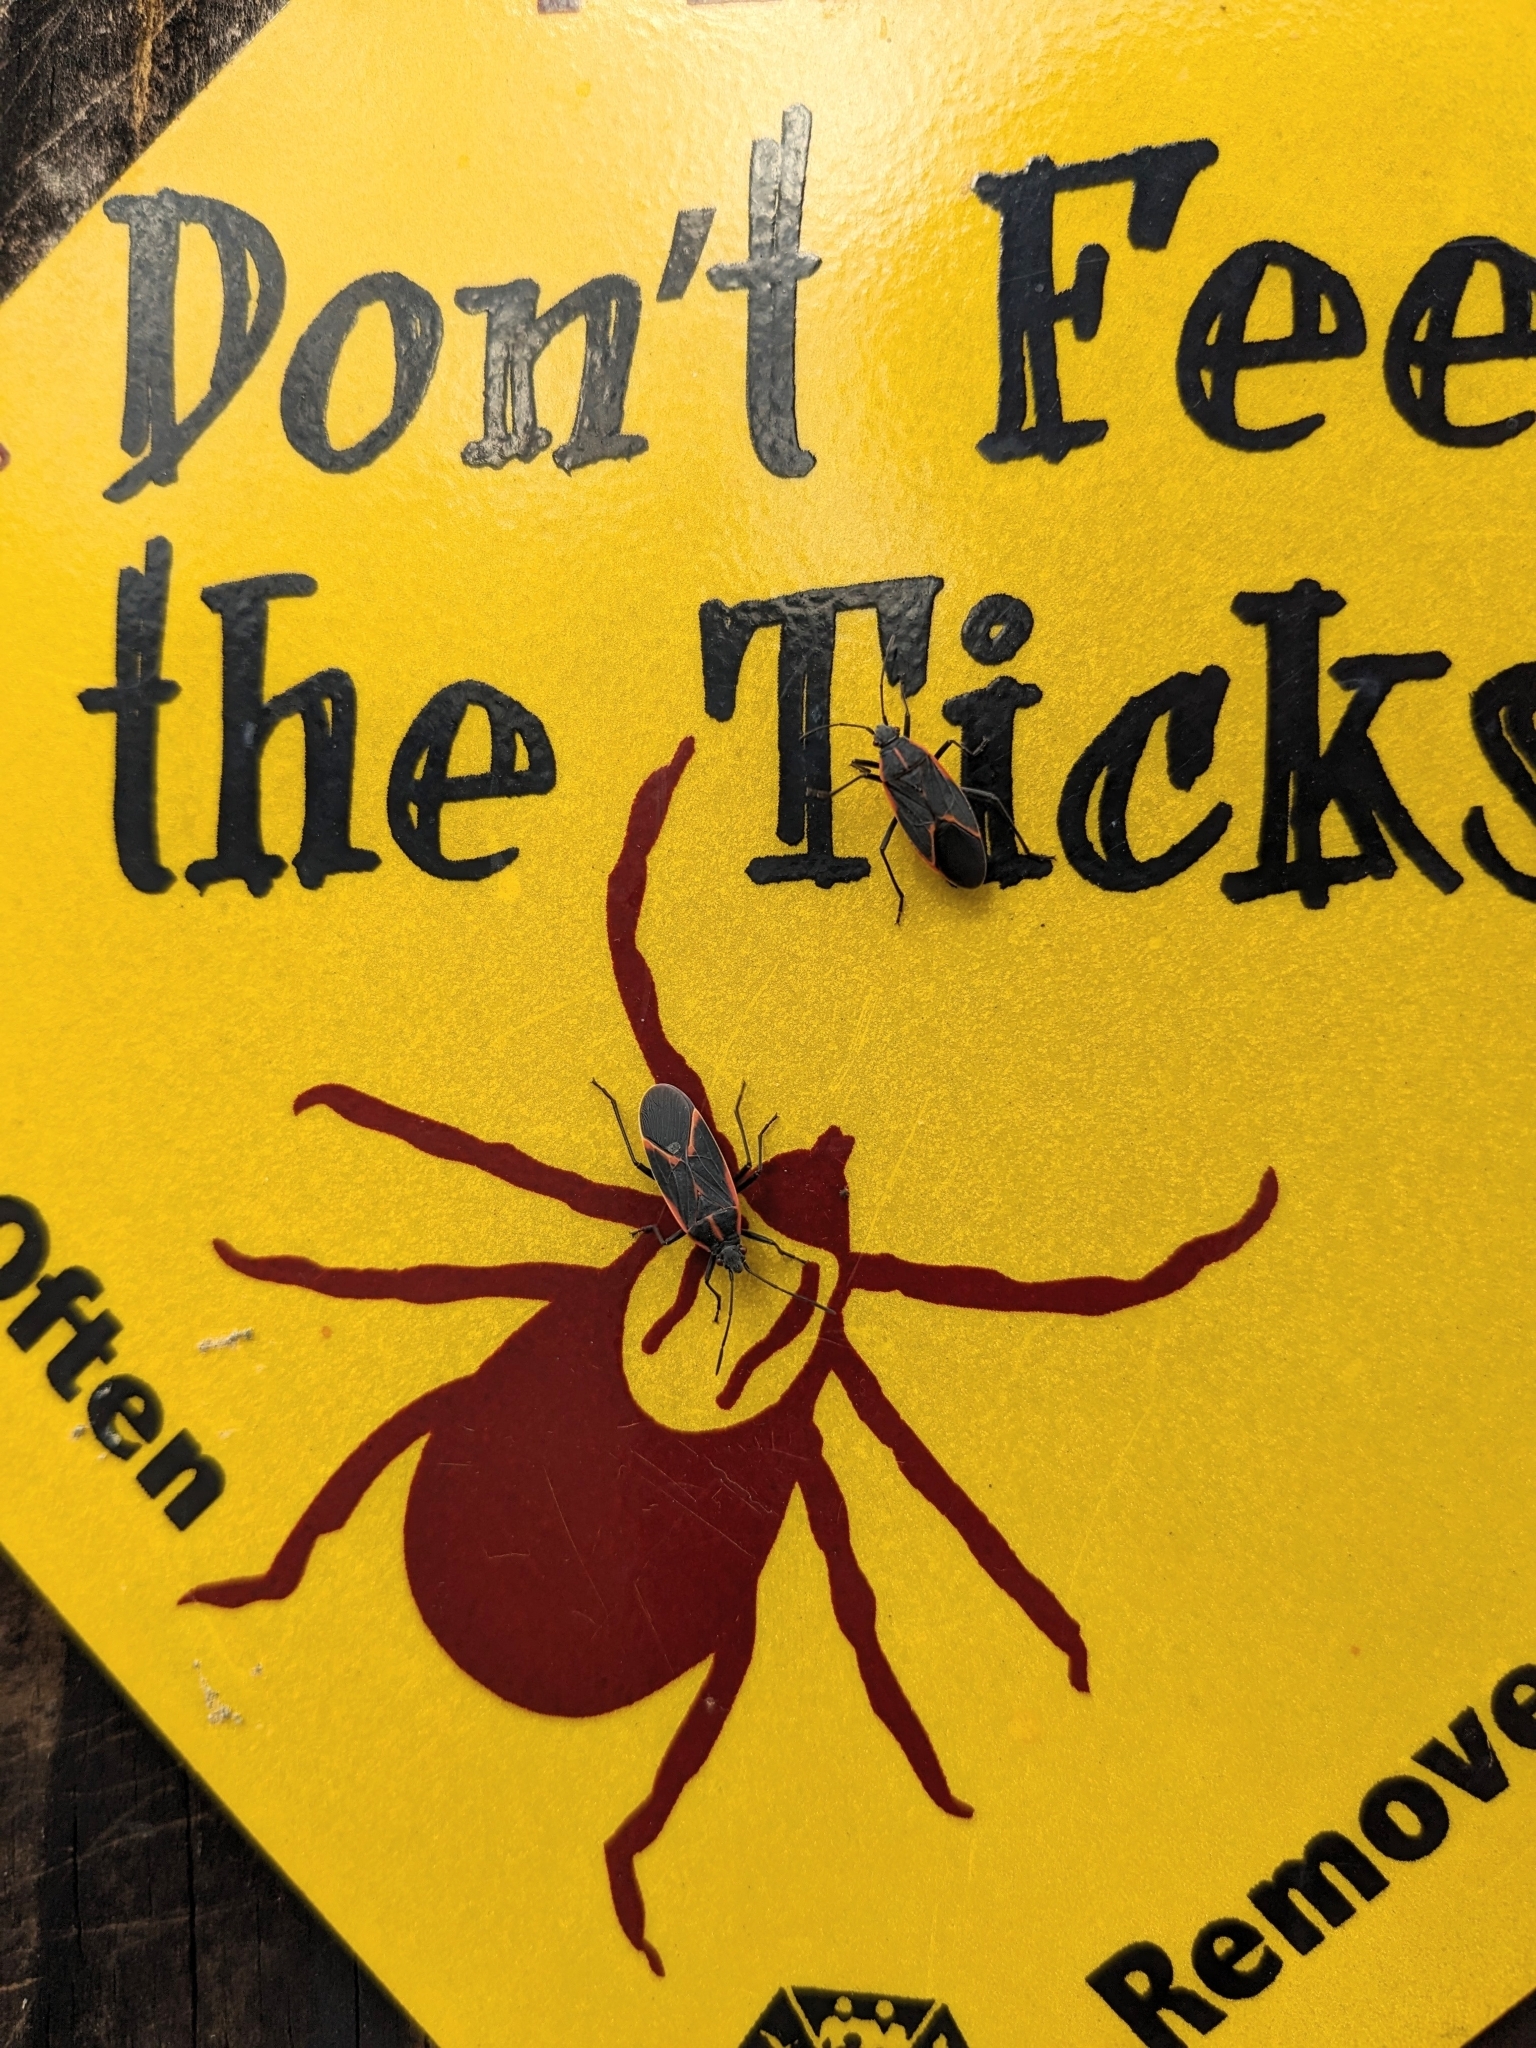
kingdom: Animalia
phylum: Arthropoda
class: Insecta
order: Hemiptera
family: Rhopalidae
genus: Boisea
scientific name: Boisea trivittata
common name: Boxelder bug
